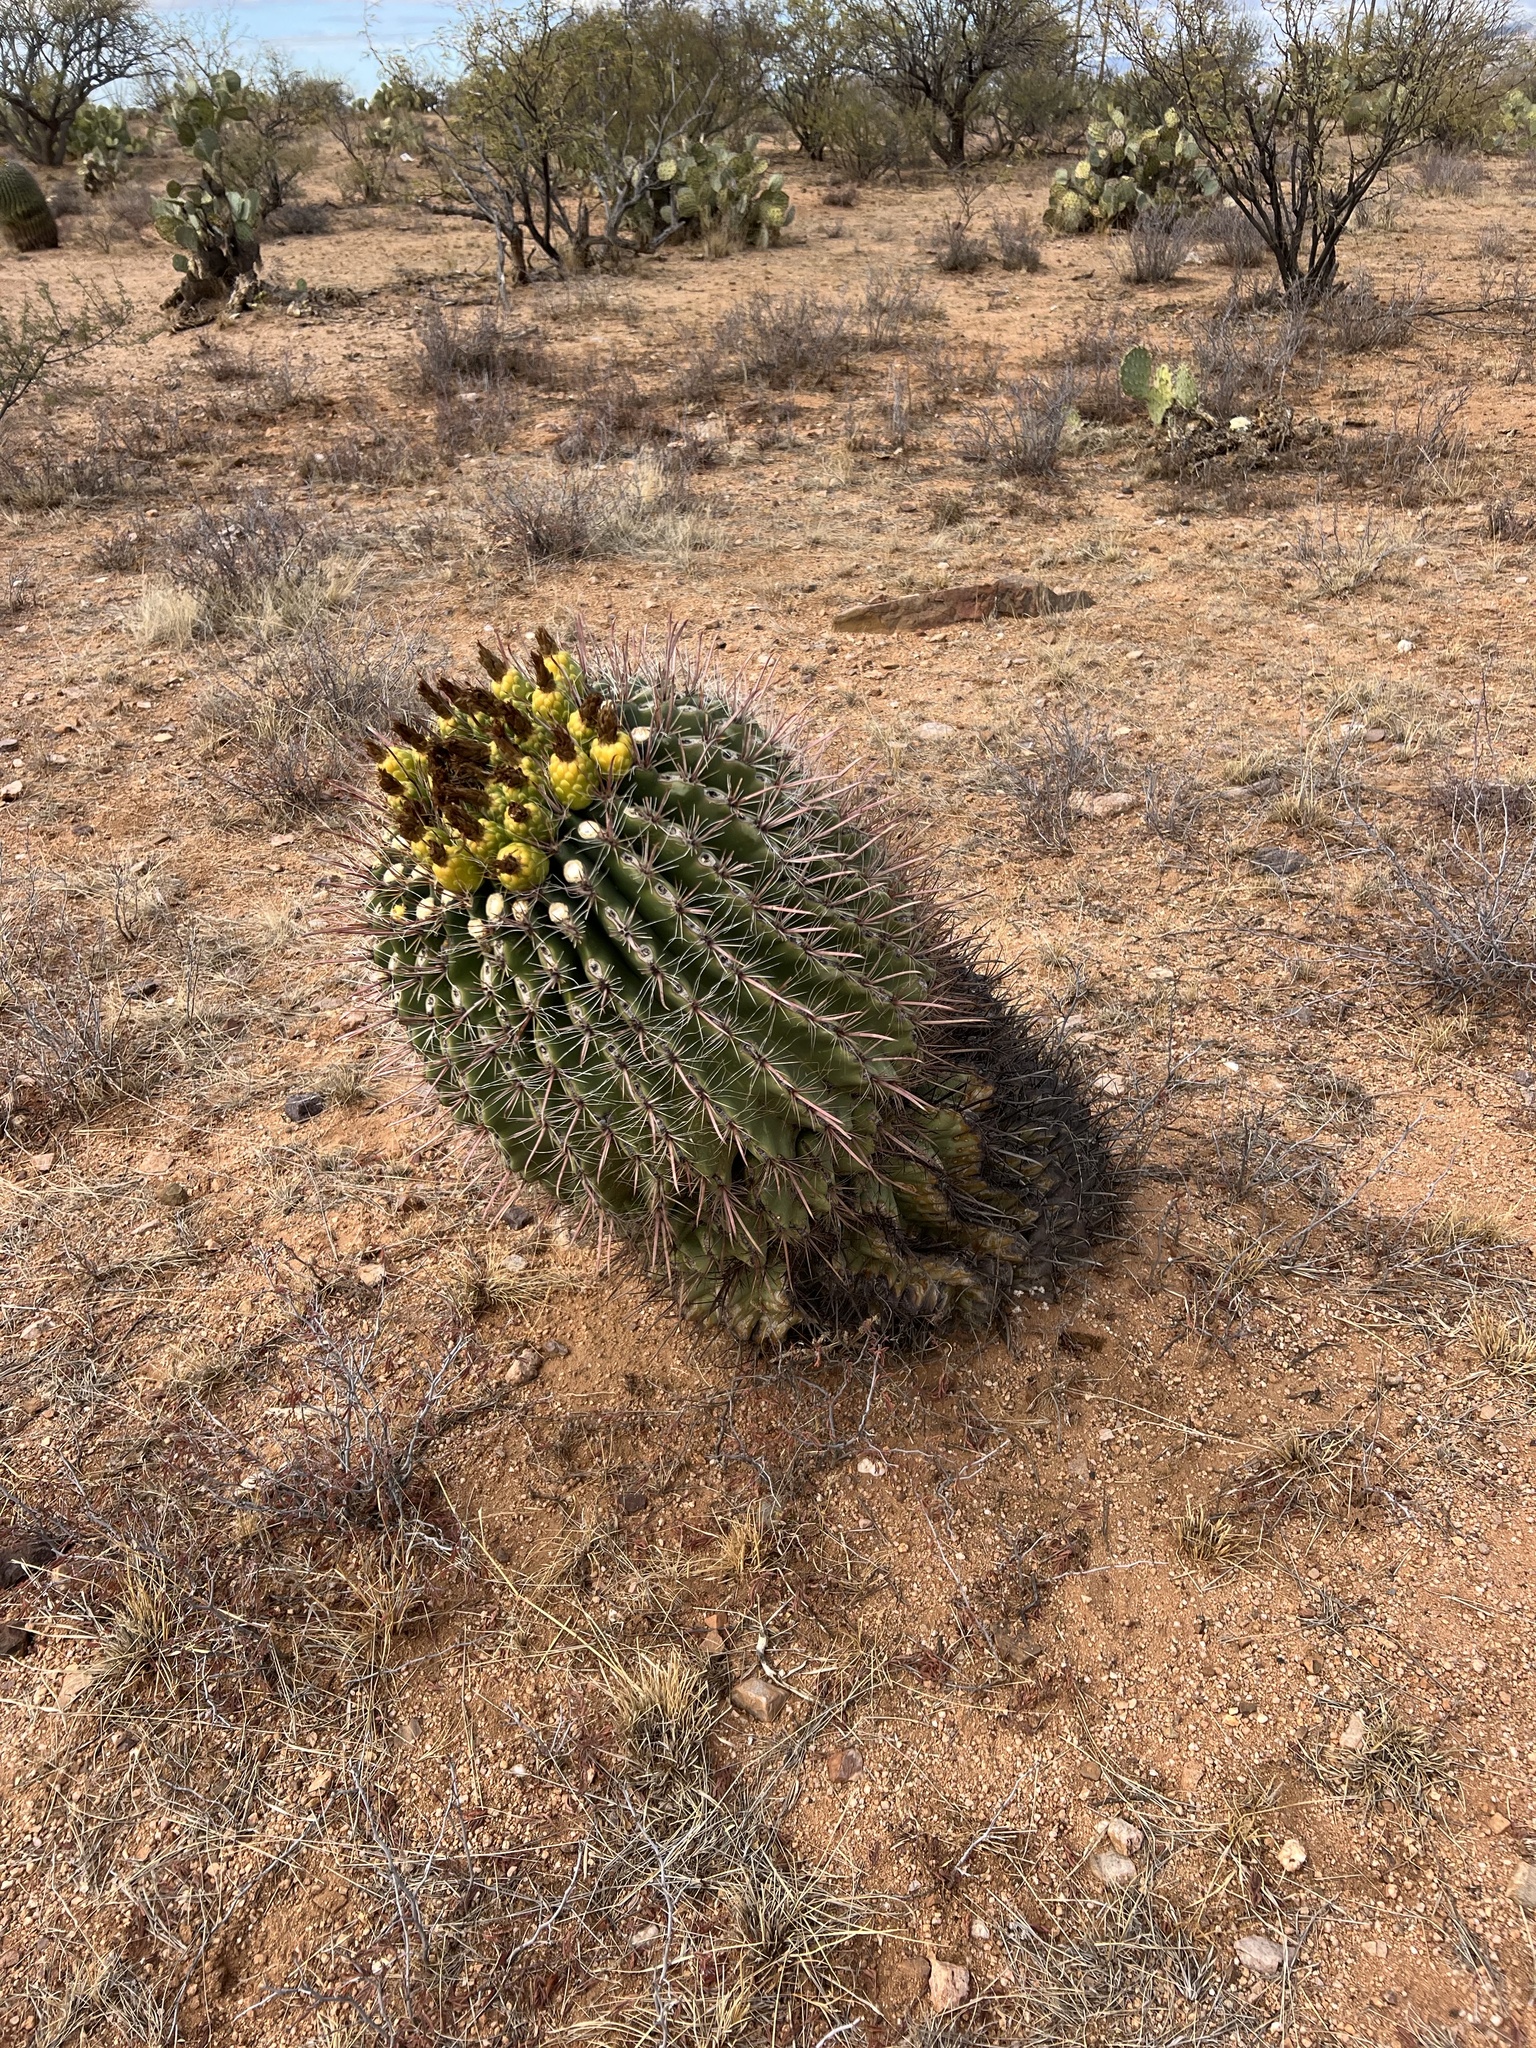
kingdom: Plantae
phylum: Tracheophyta
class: Magnoliopsida
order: Caryophyllales
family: Cactaceae
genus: Ferocactus
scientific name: Ferocactus wislizeni
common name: Candy barrel cactus
